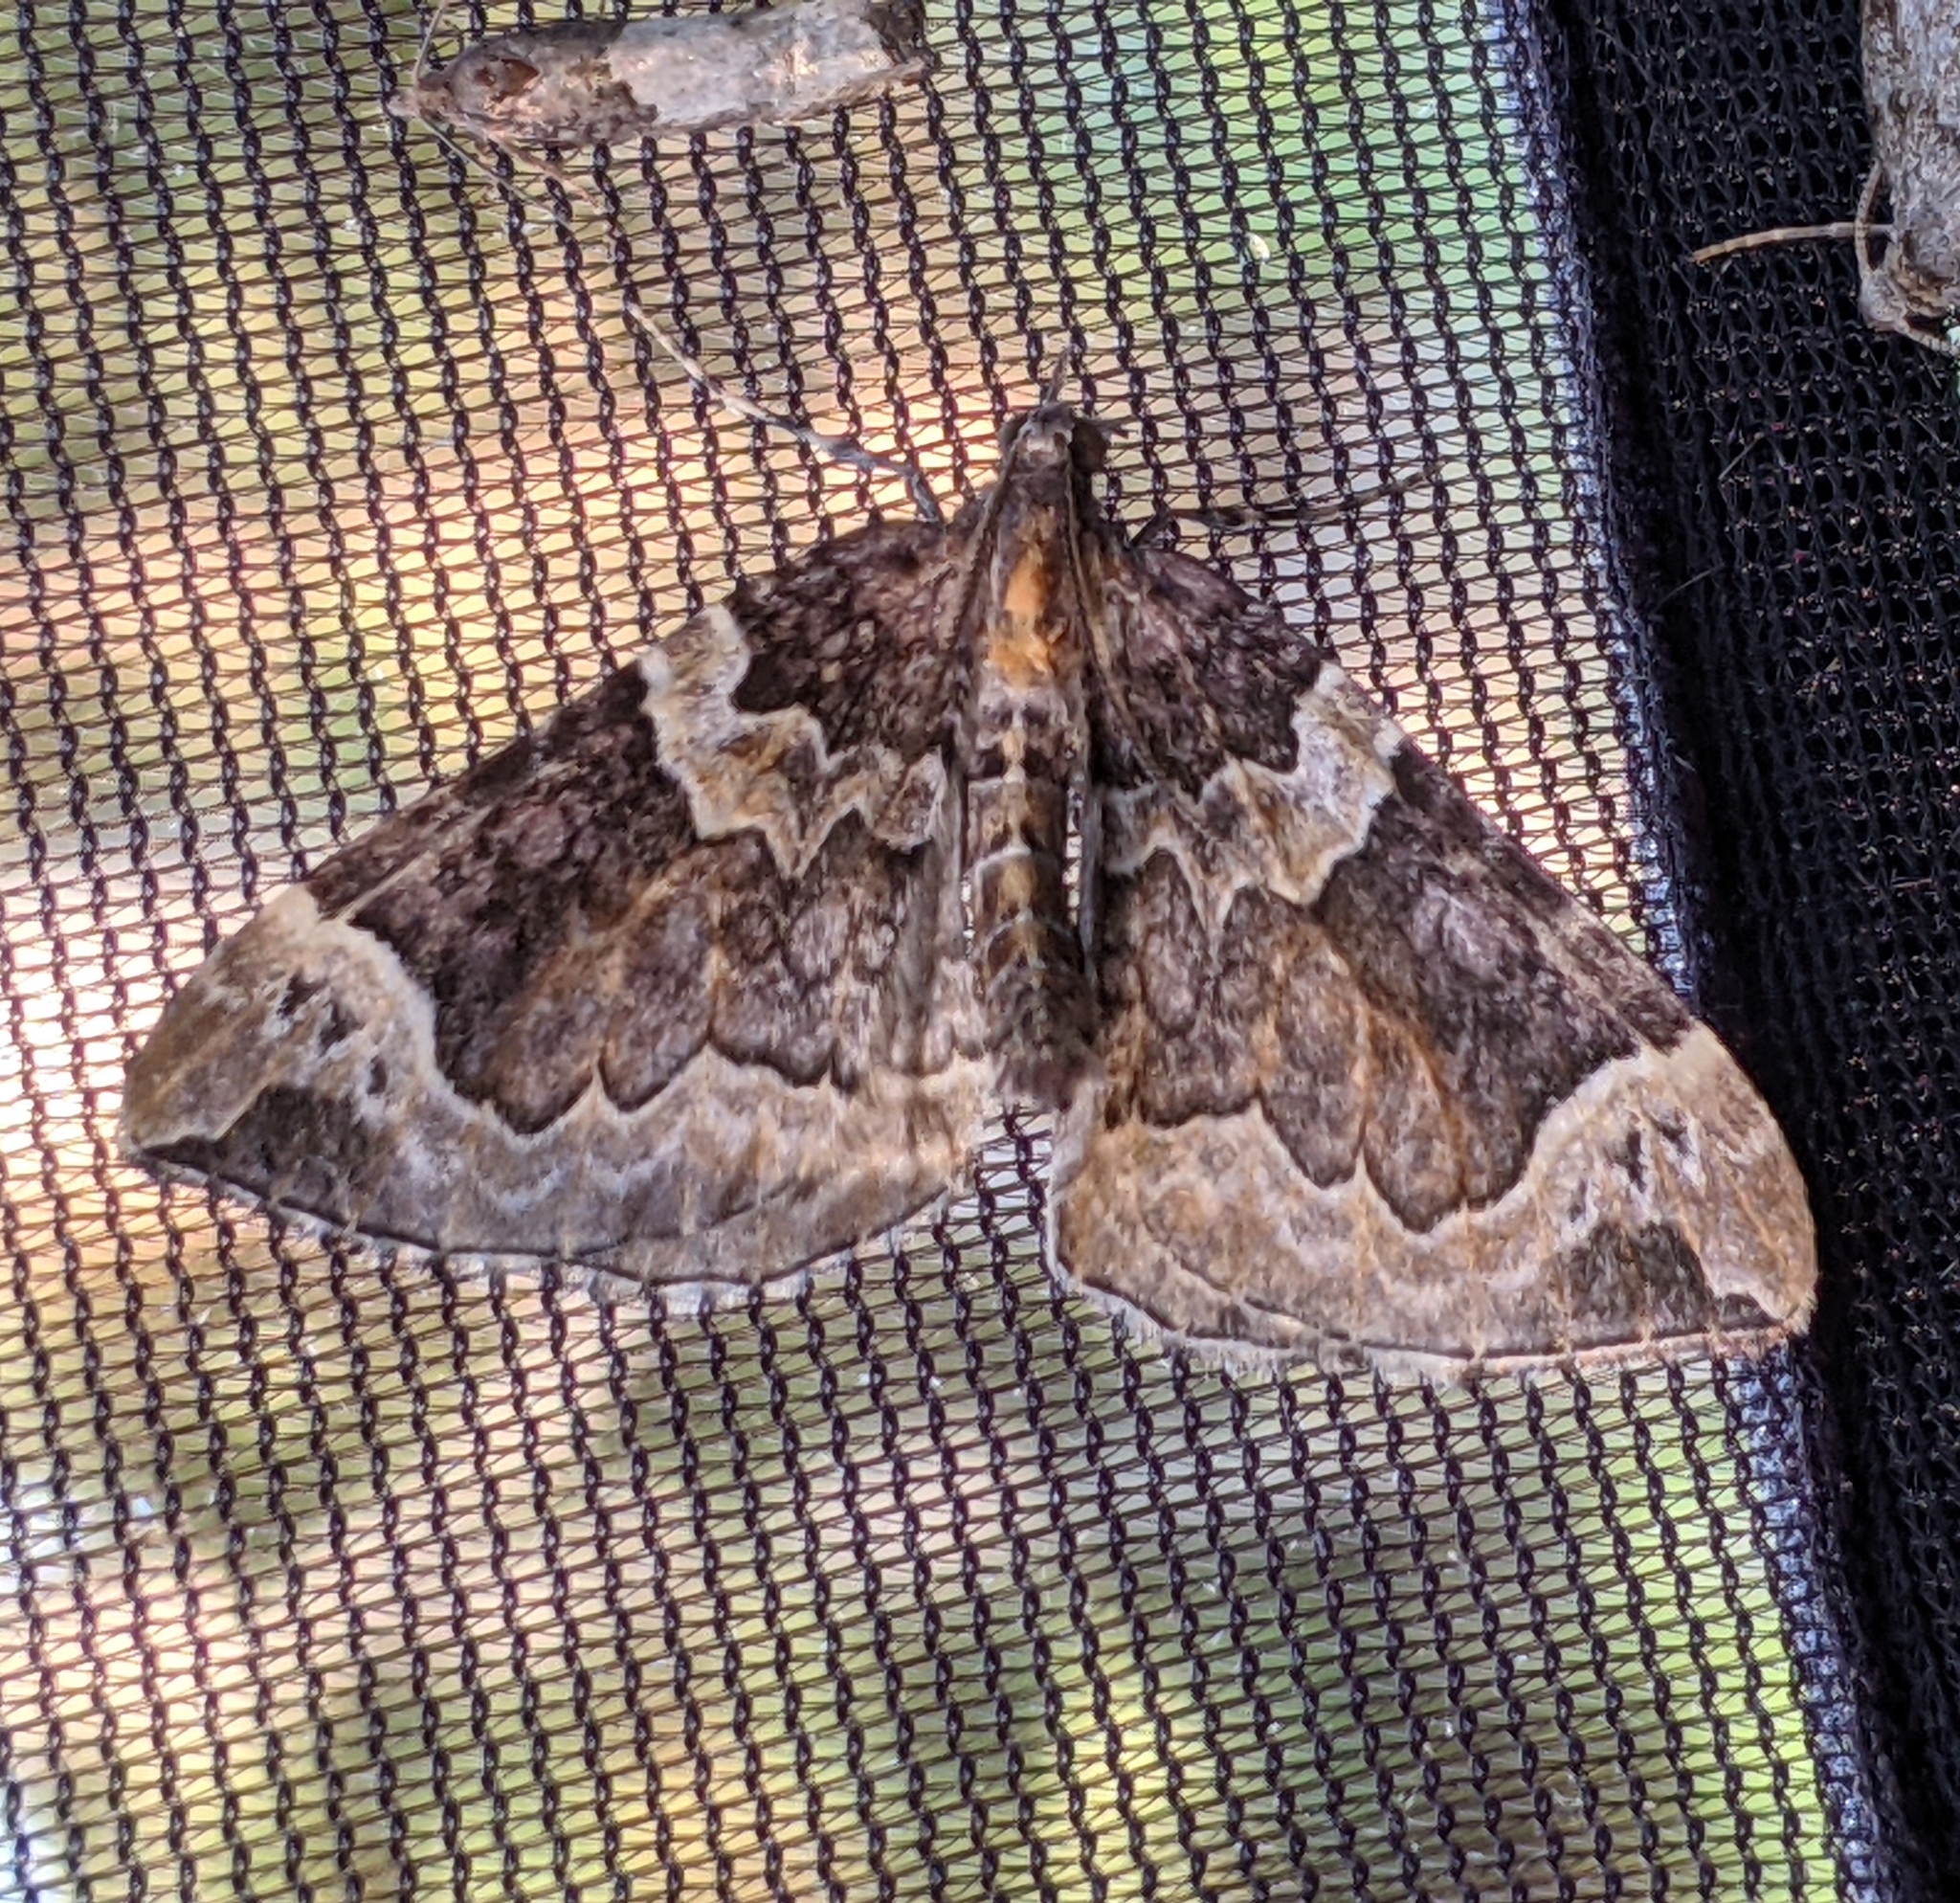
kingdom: Animalia
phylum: Arthropoda
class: Insecta
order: Lepidoptera
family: Geometridae
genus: Eulithis
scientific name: Eulithis xylina
